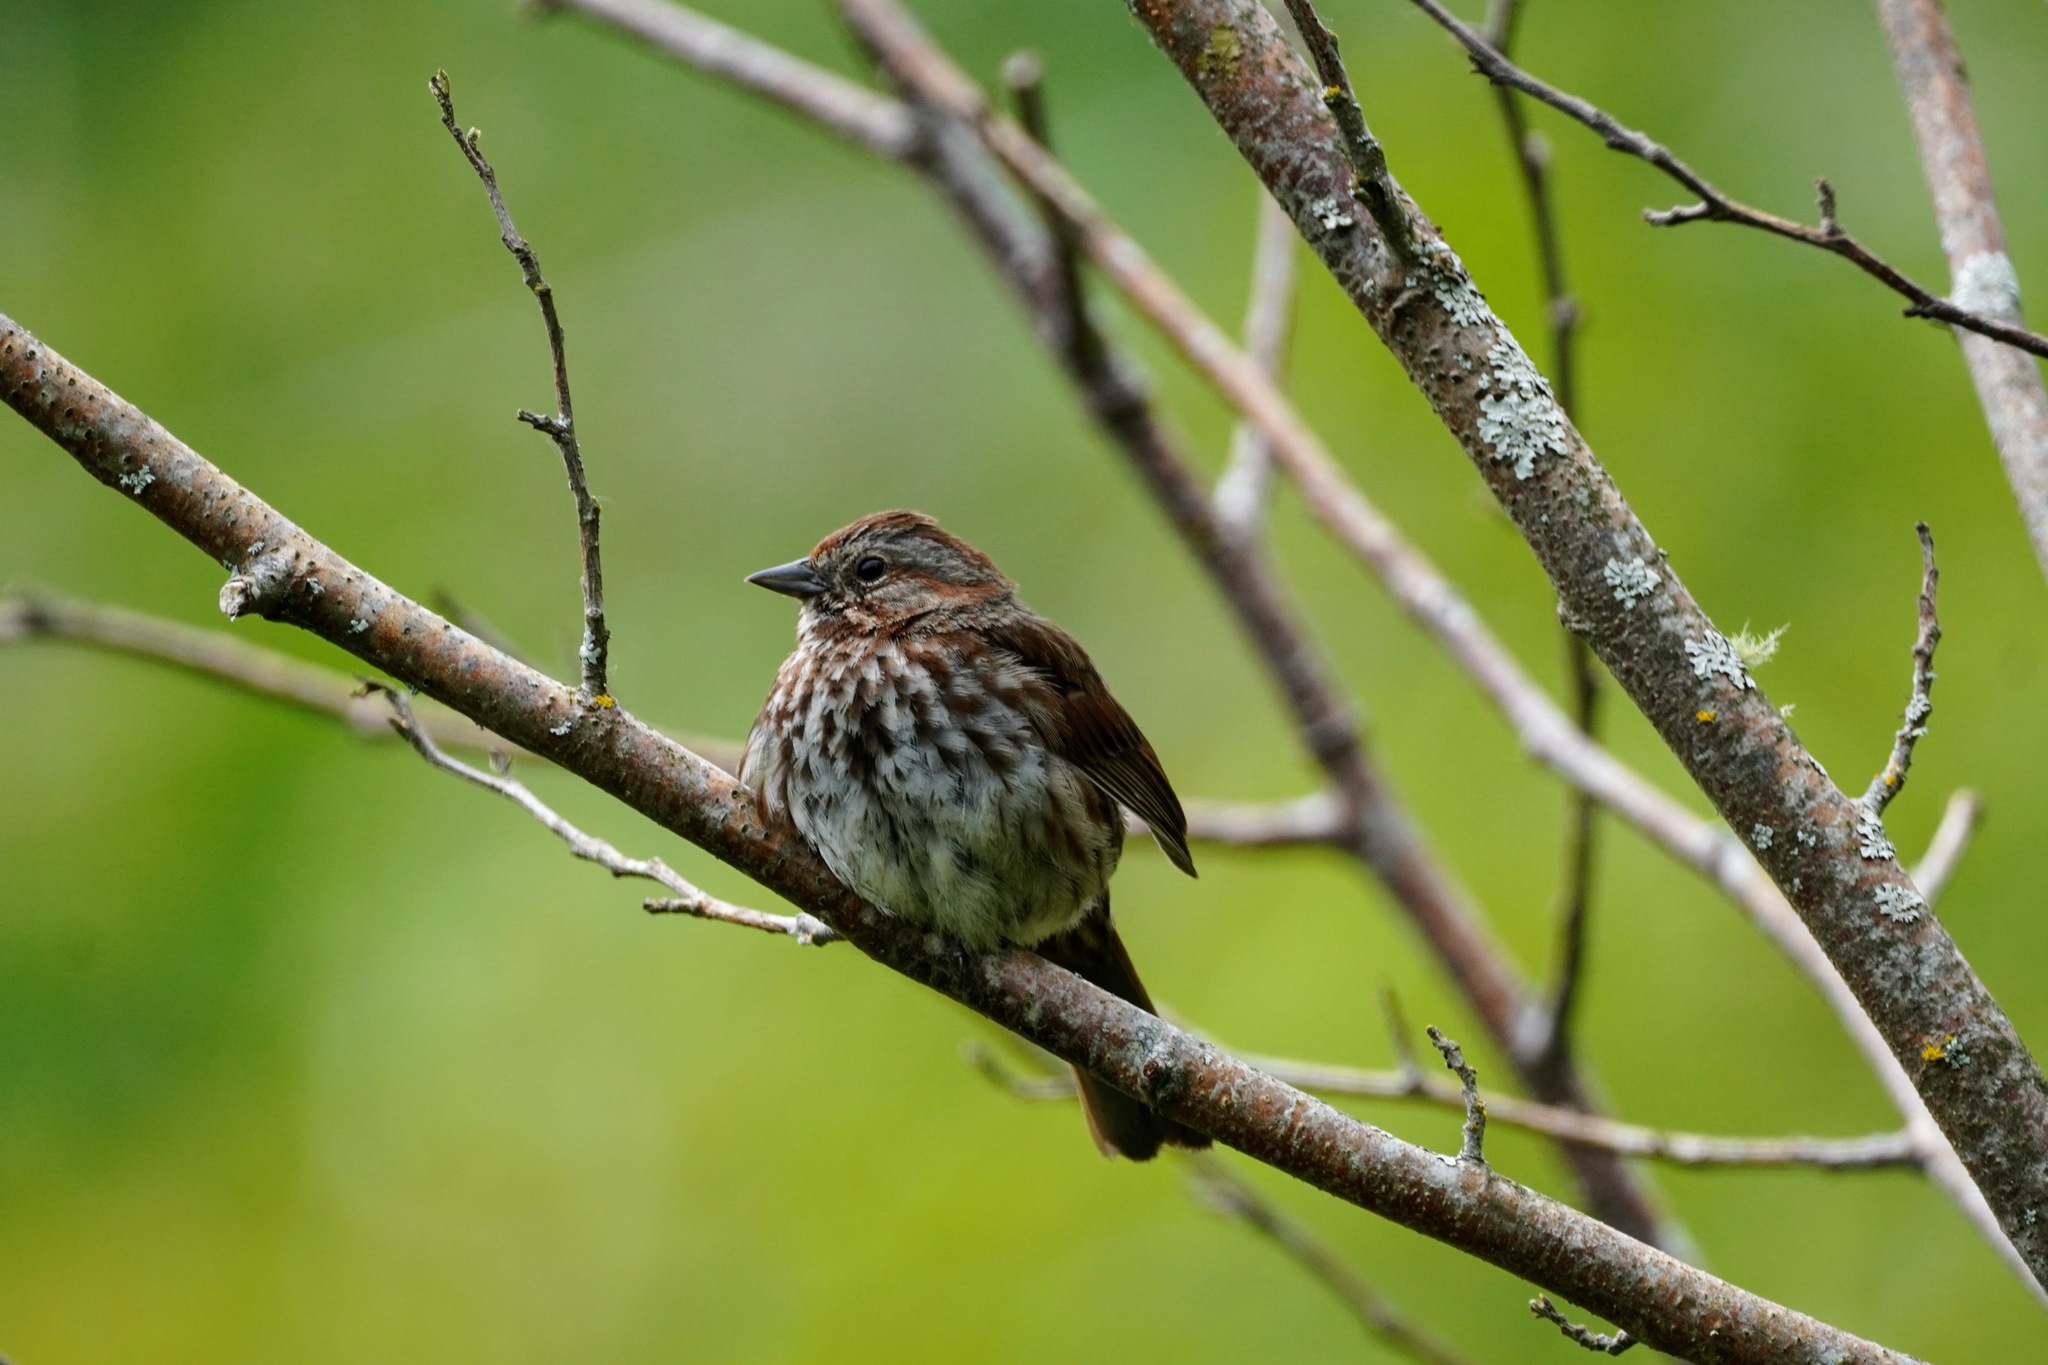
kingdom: Animalia
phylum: Chordata
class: Aves
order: Passeriformes
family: Passerellidae
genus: Melospiza
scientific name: Melospiza melodia
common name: Song sparrow
